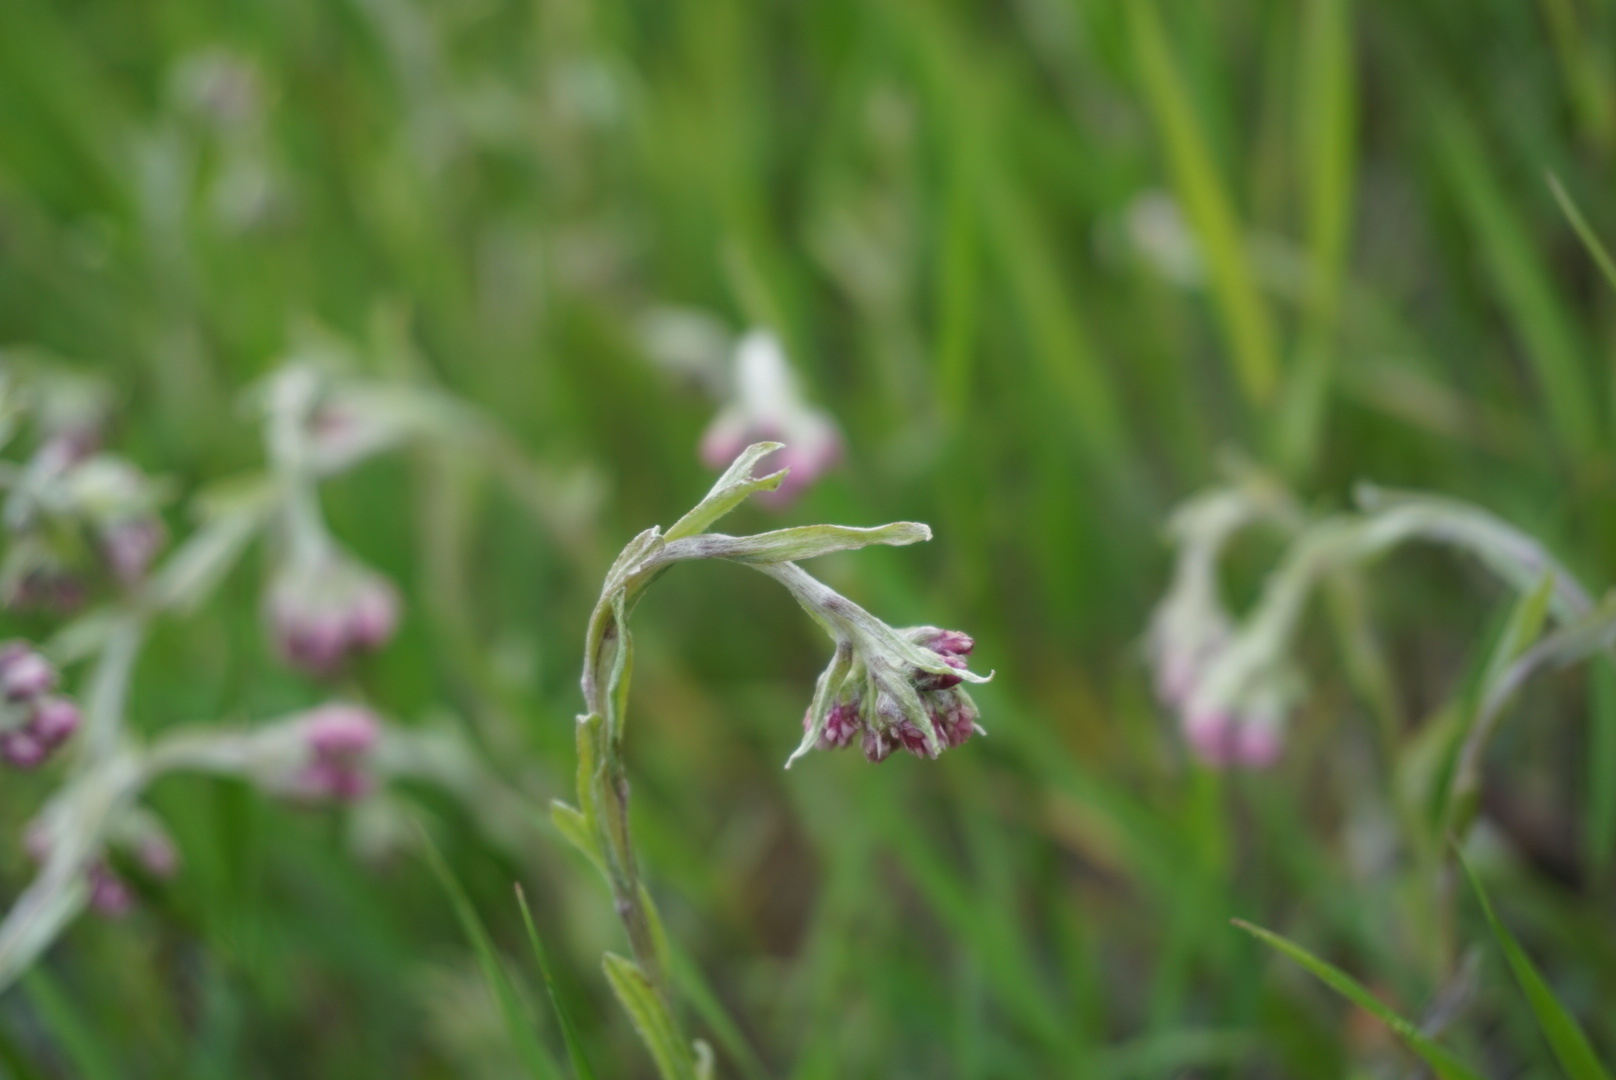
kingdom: Plantae
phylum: Tracheophyta
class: Magnoliopsida
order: Asterales
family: Asteraceae
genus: Antennaria
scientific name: Antennaria rosea
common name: Rosy pussytoes
